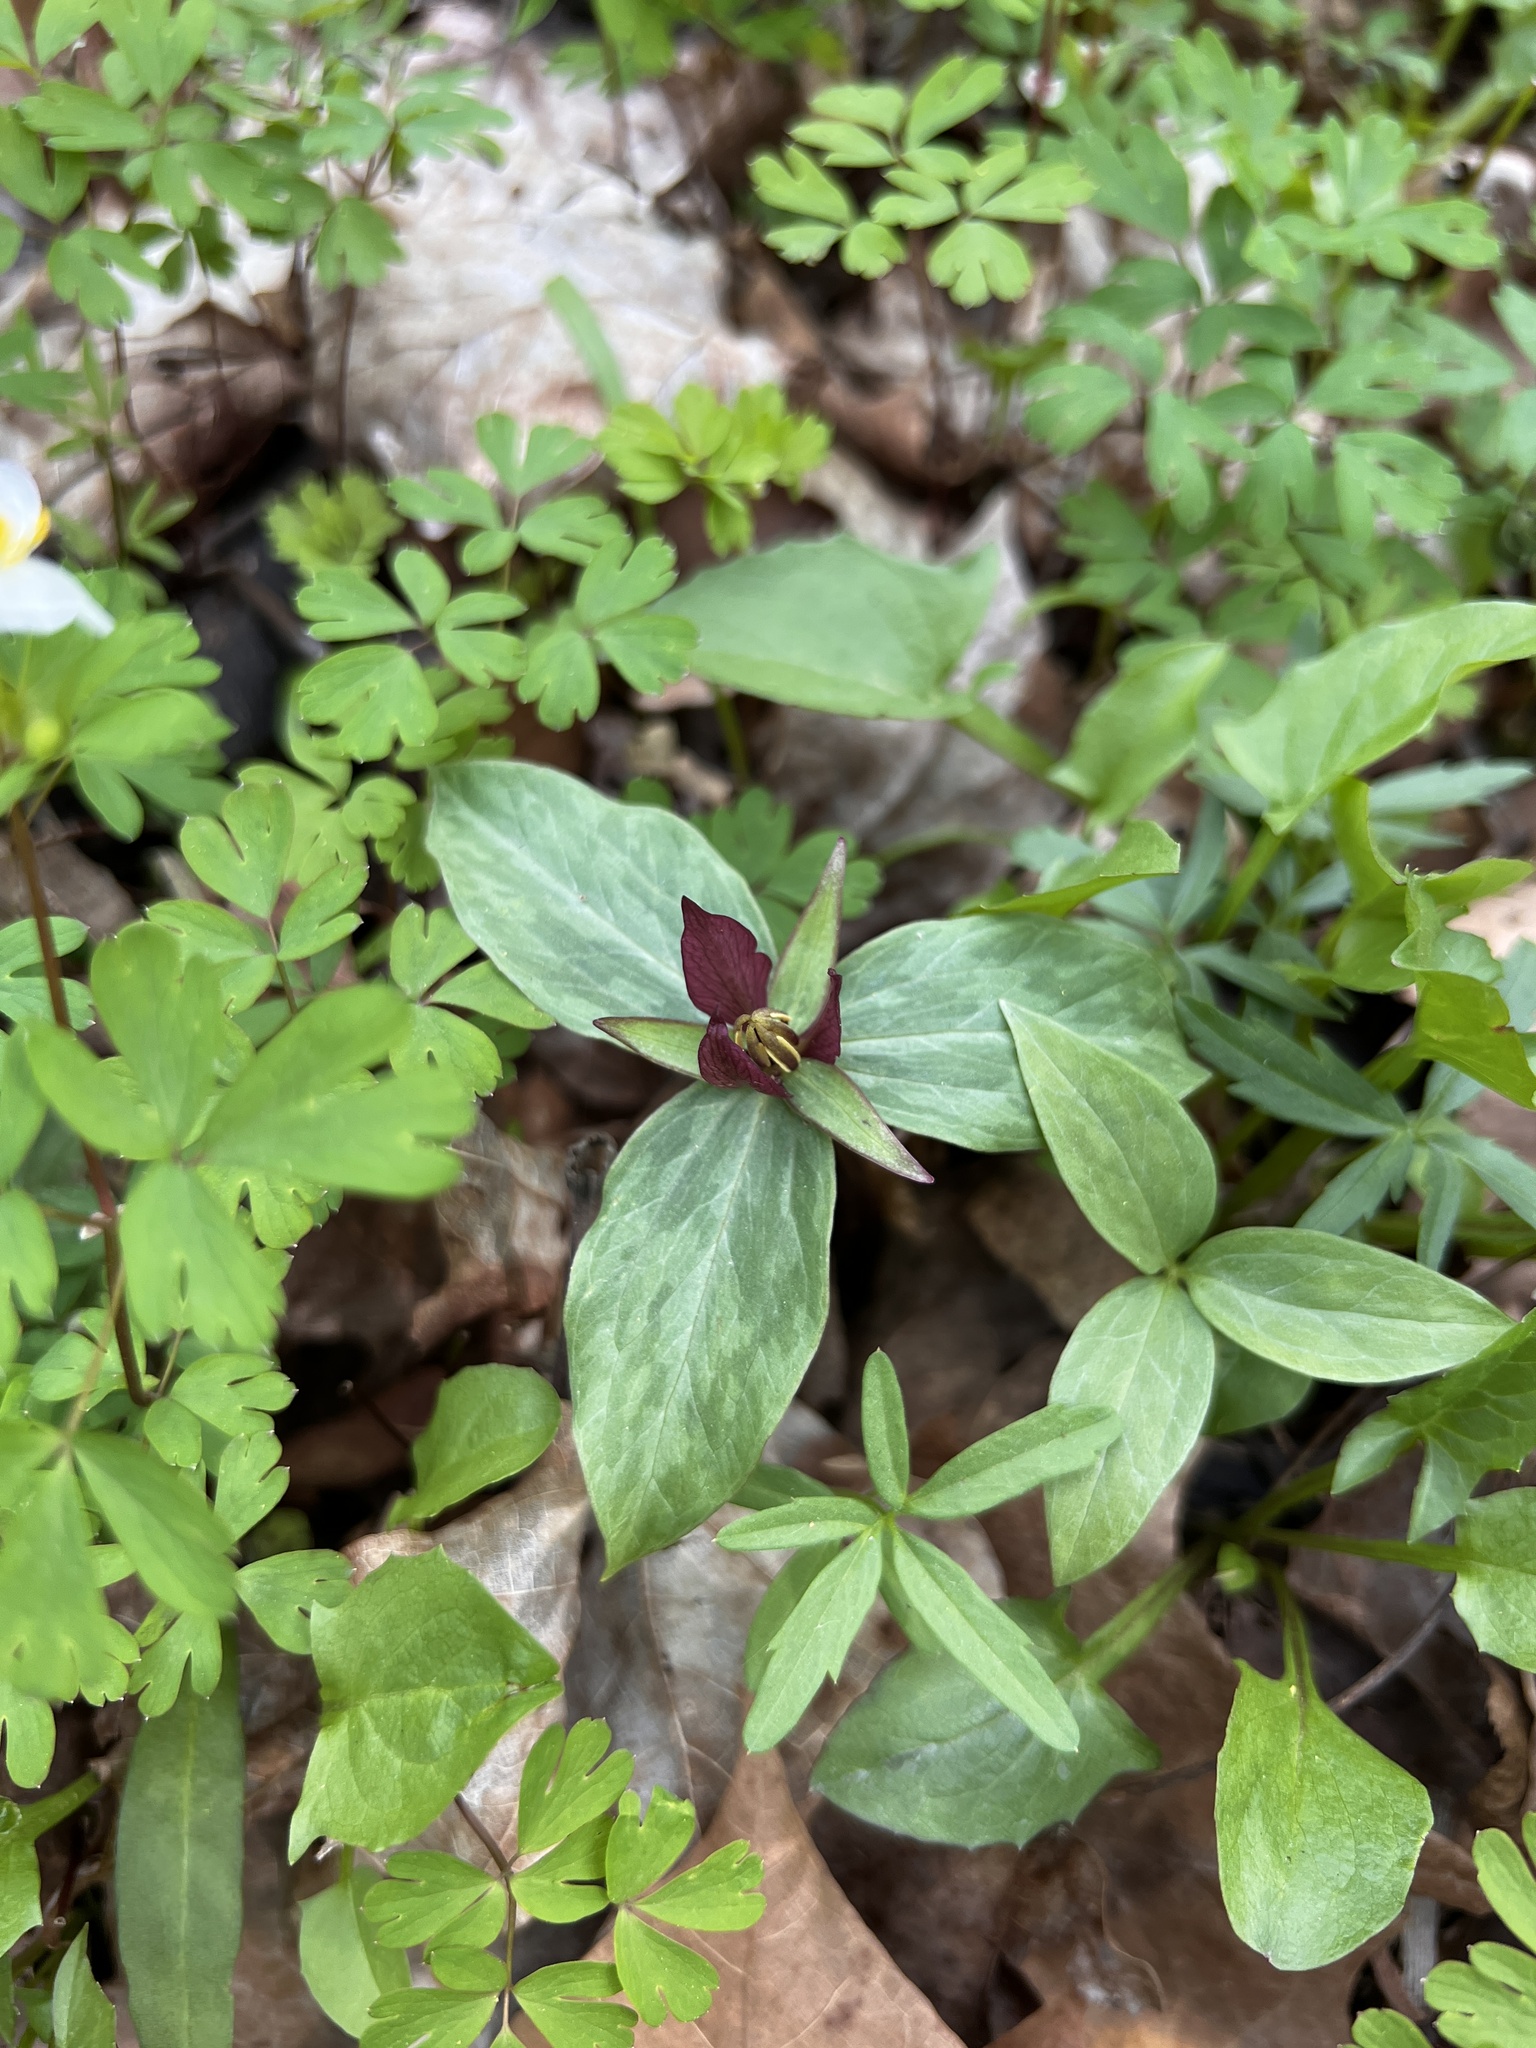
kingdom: Plantae
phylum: Tracheophyta
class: Liliopsida
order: Liliales
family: Melanthiaceae
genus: Trillium
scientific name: Trillium sessile
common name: Sessile trillium
